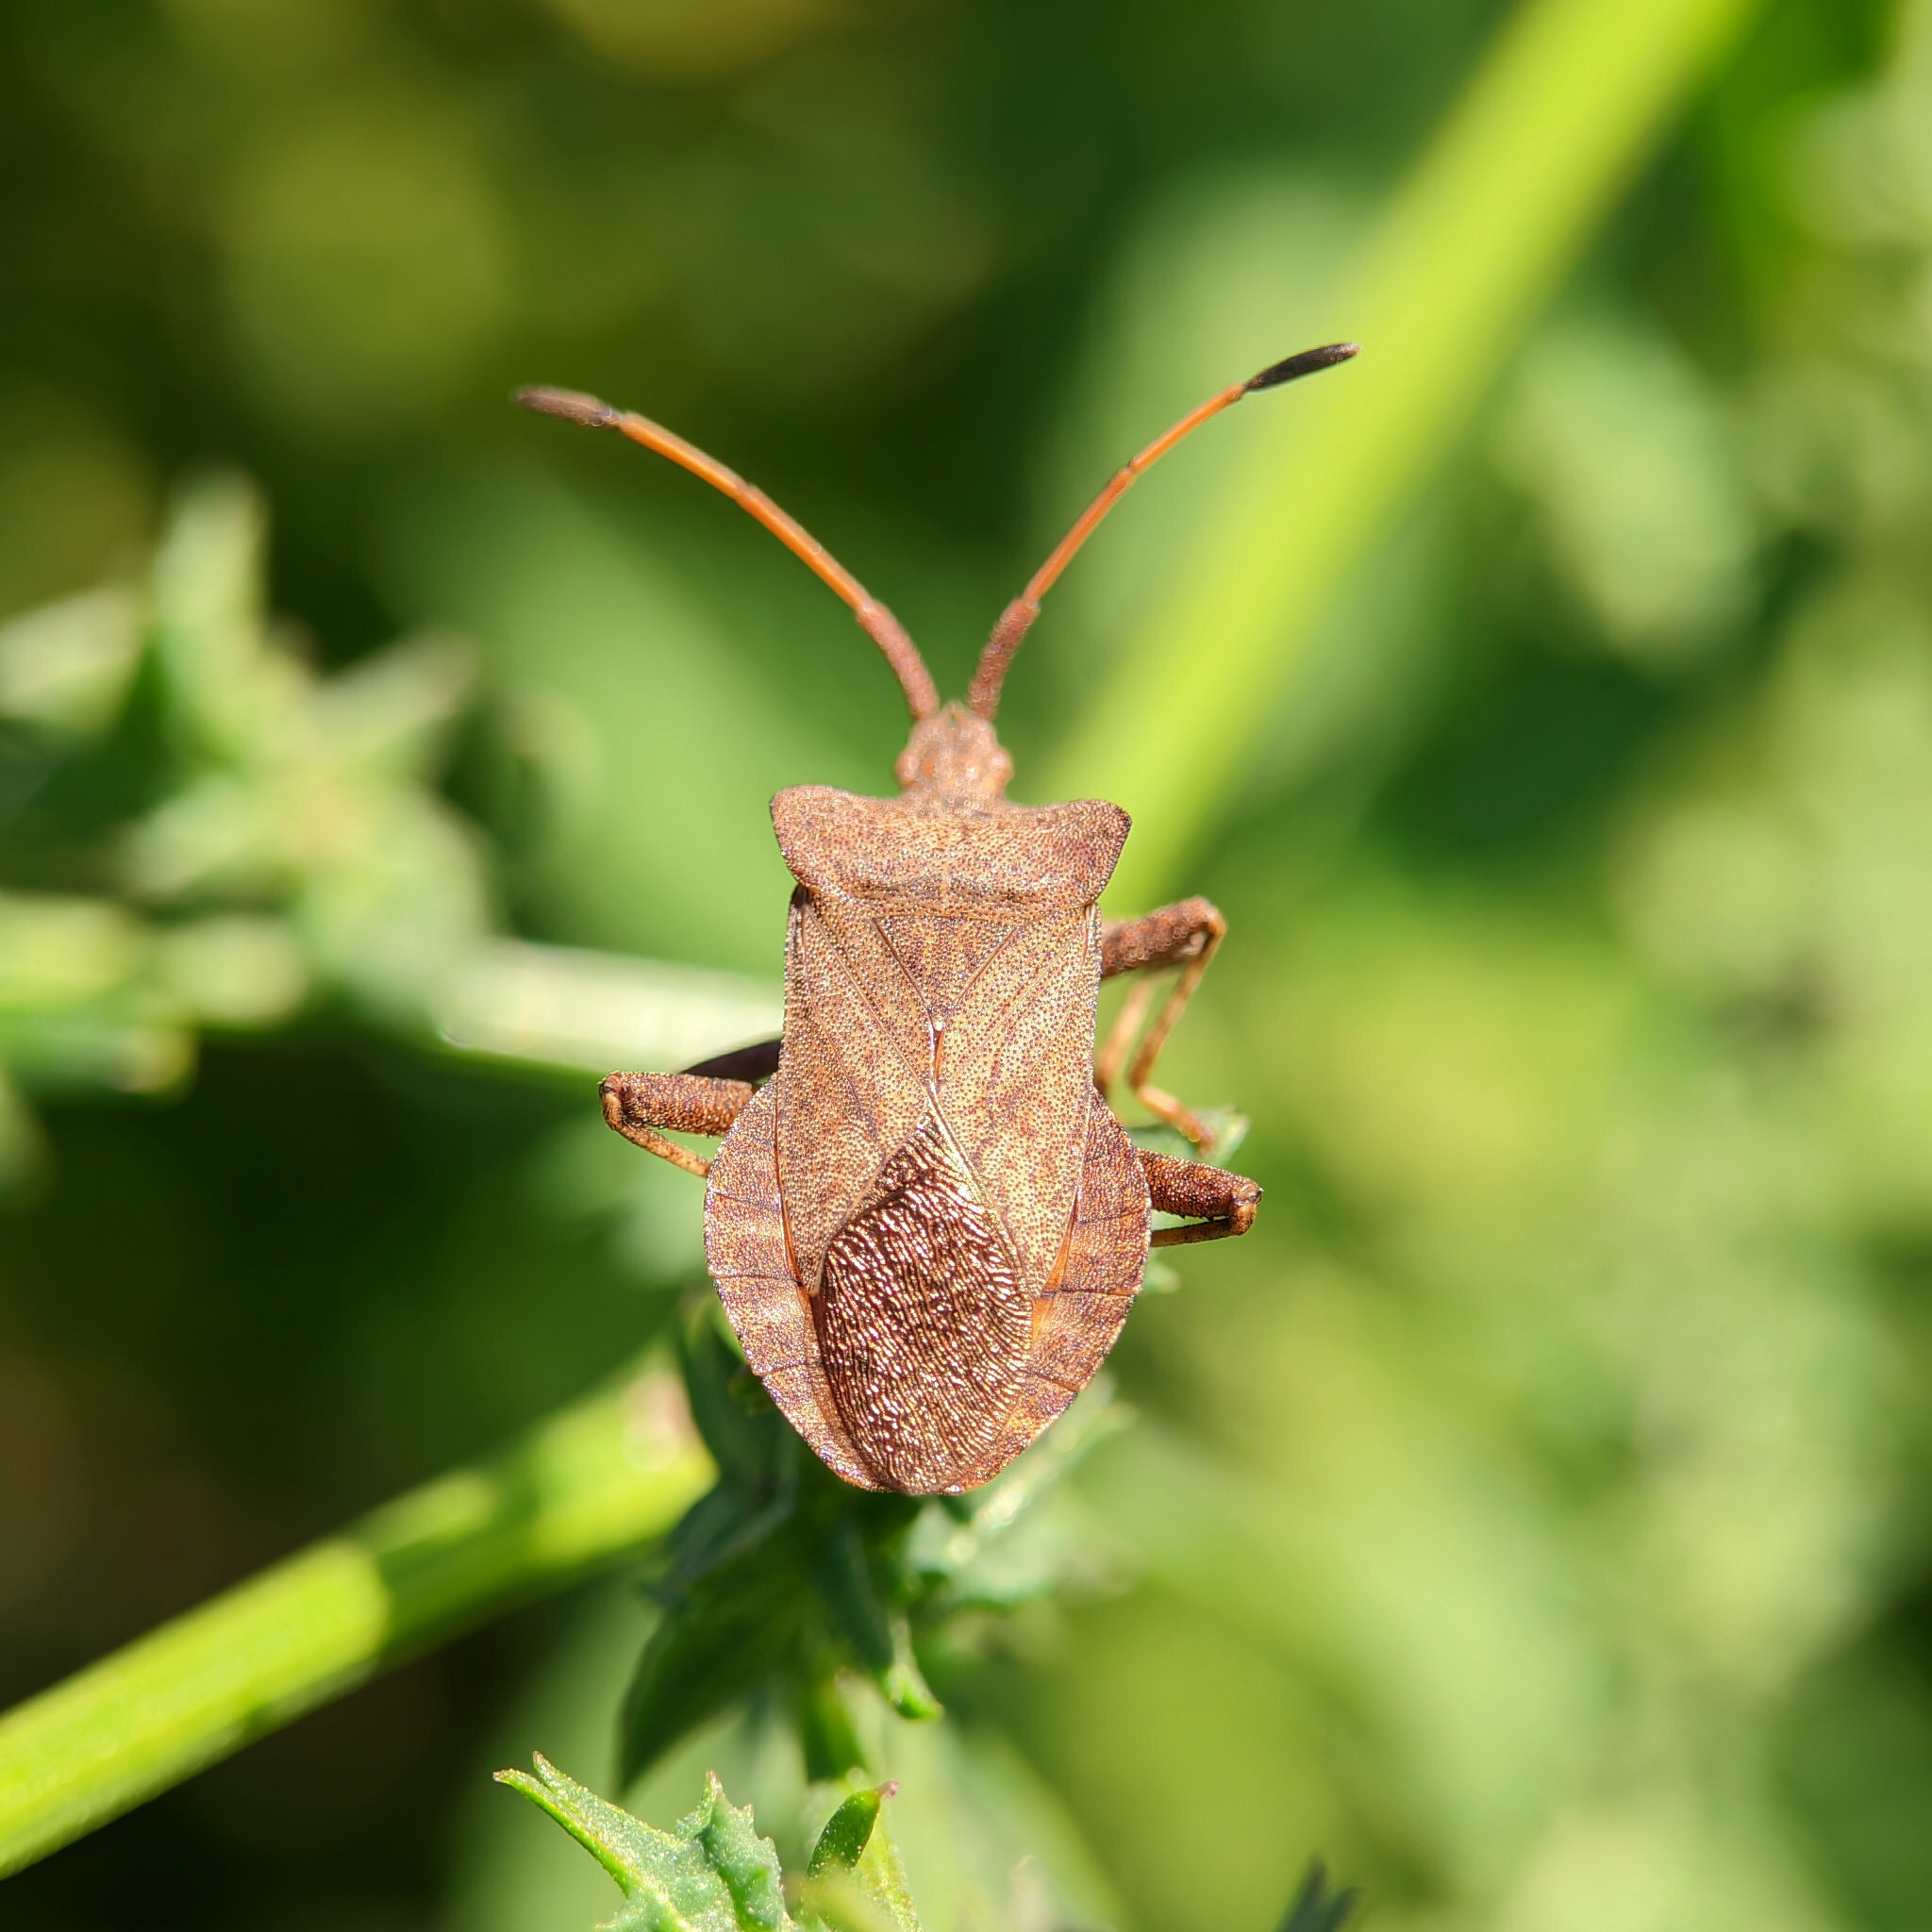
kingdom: Animalia
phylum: Arthropoda
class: Insecta
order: Hemiptera
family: Coreidae
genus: Coreus
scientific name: Coreus marginatus
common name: Dock bug
